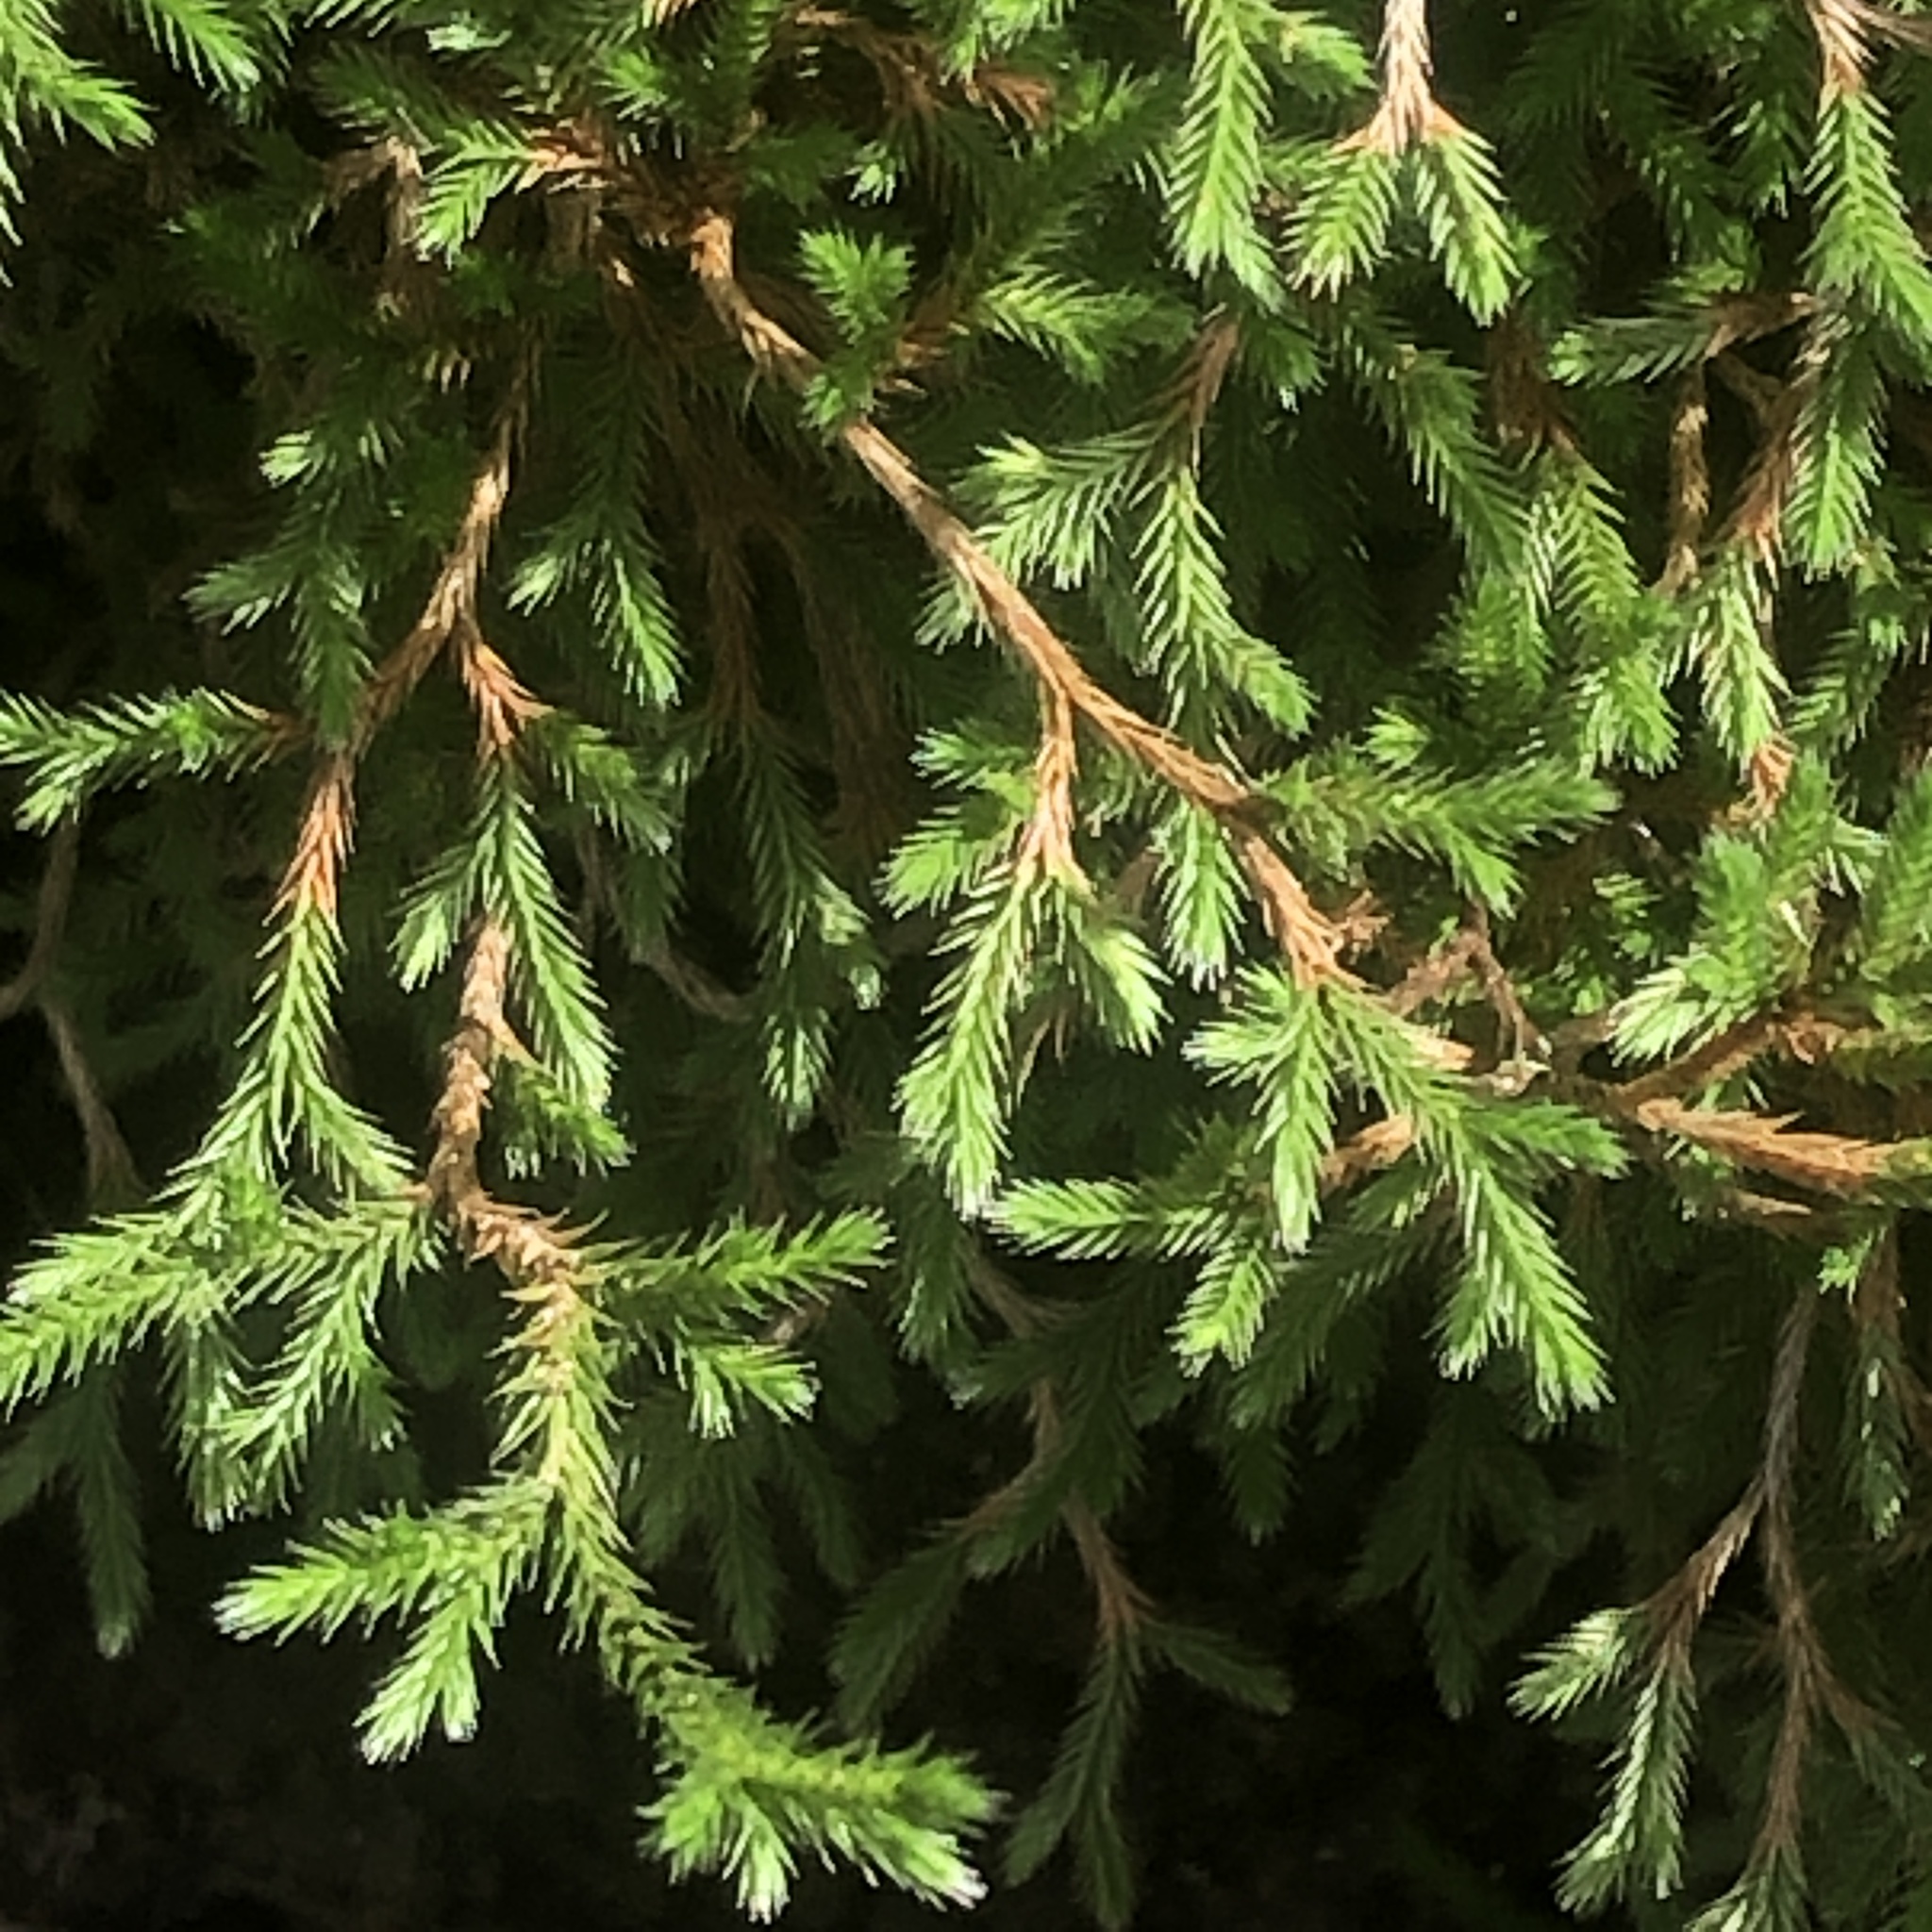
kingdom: Plantae
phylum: Tracheophyta
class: Lycopodiopsida
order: Selaginellales
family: Selaginellaceae
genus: Selaginella
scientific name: Selaginella bigelovii
